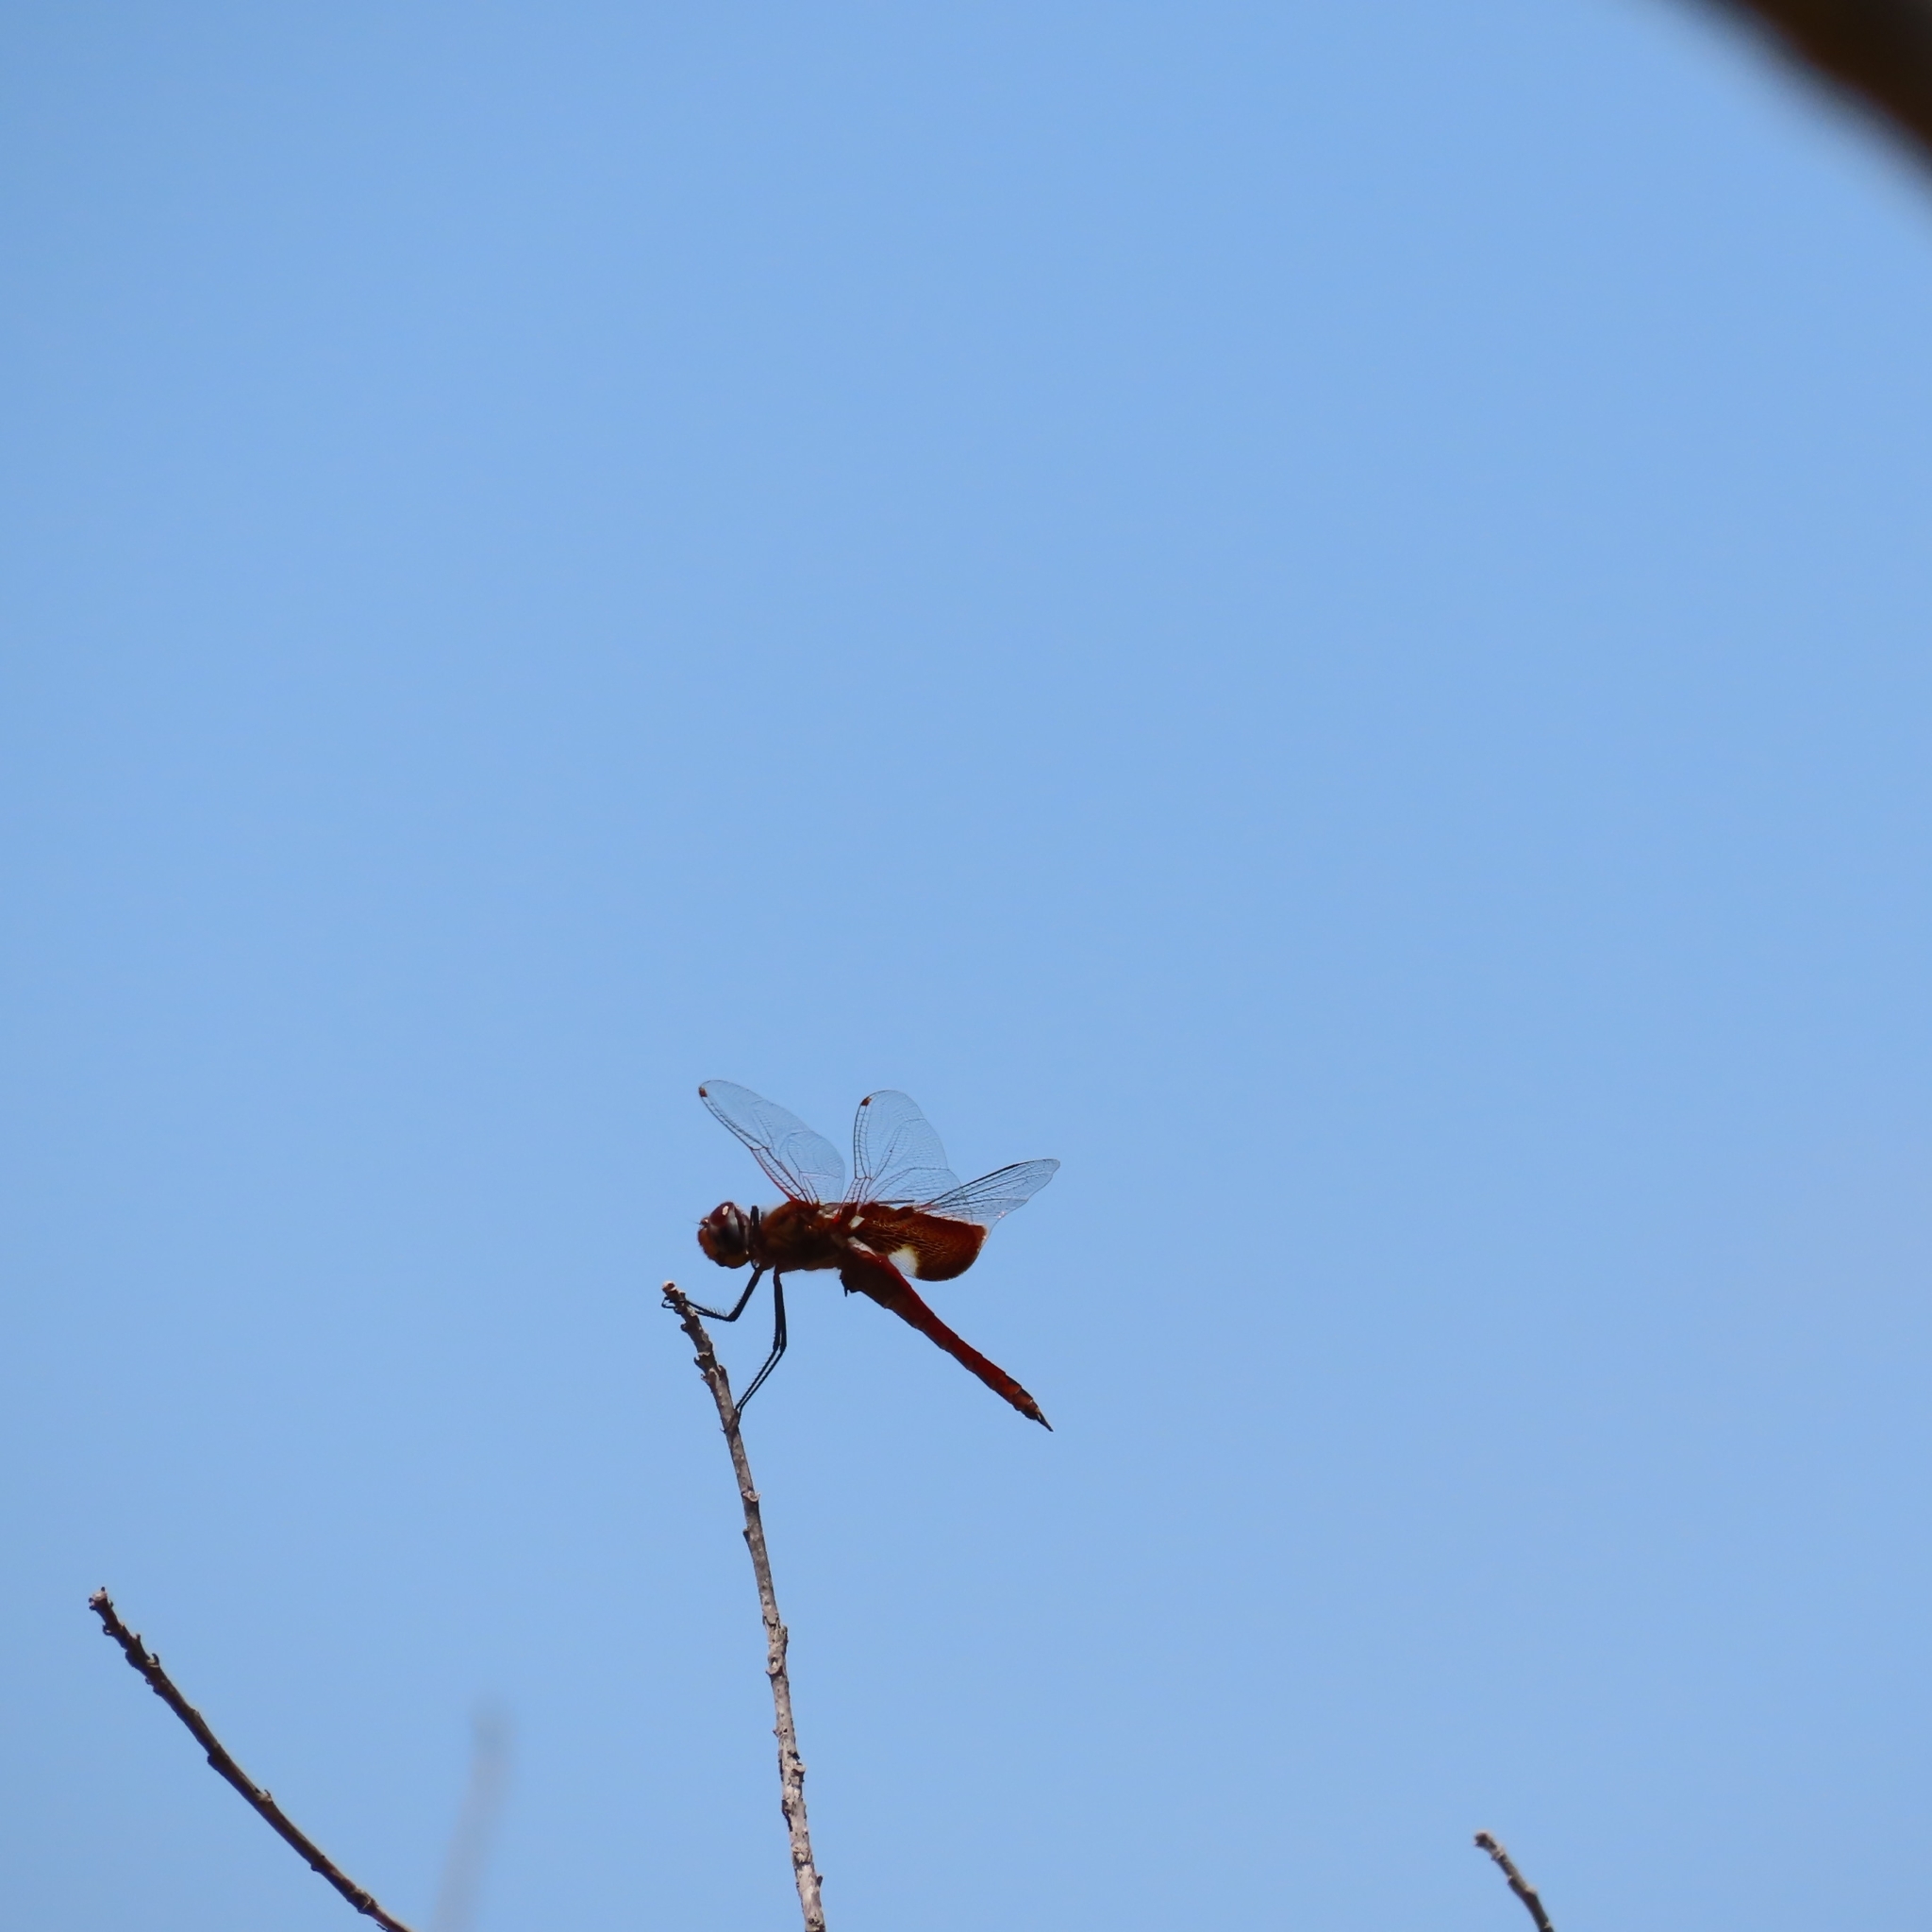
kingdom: Animalia
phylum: Arthropoda
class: Insecta
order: Odonata
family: Libellulidae
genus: Tramea
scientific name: Tramea onusta
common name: Red saddlebags
